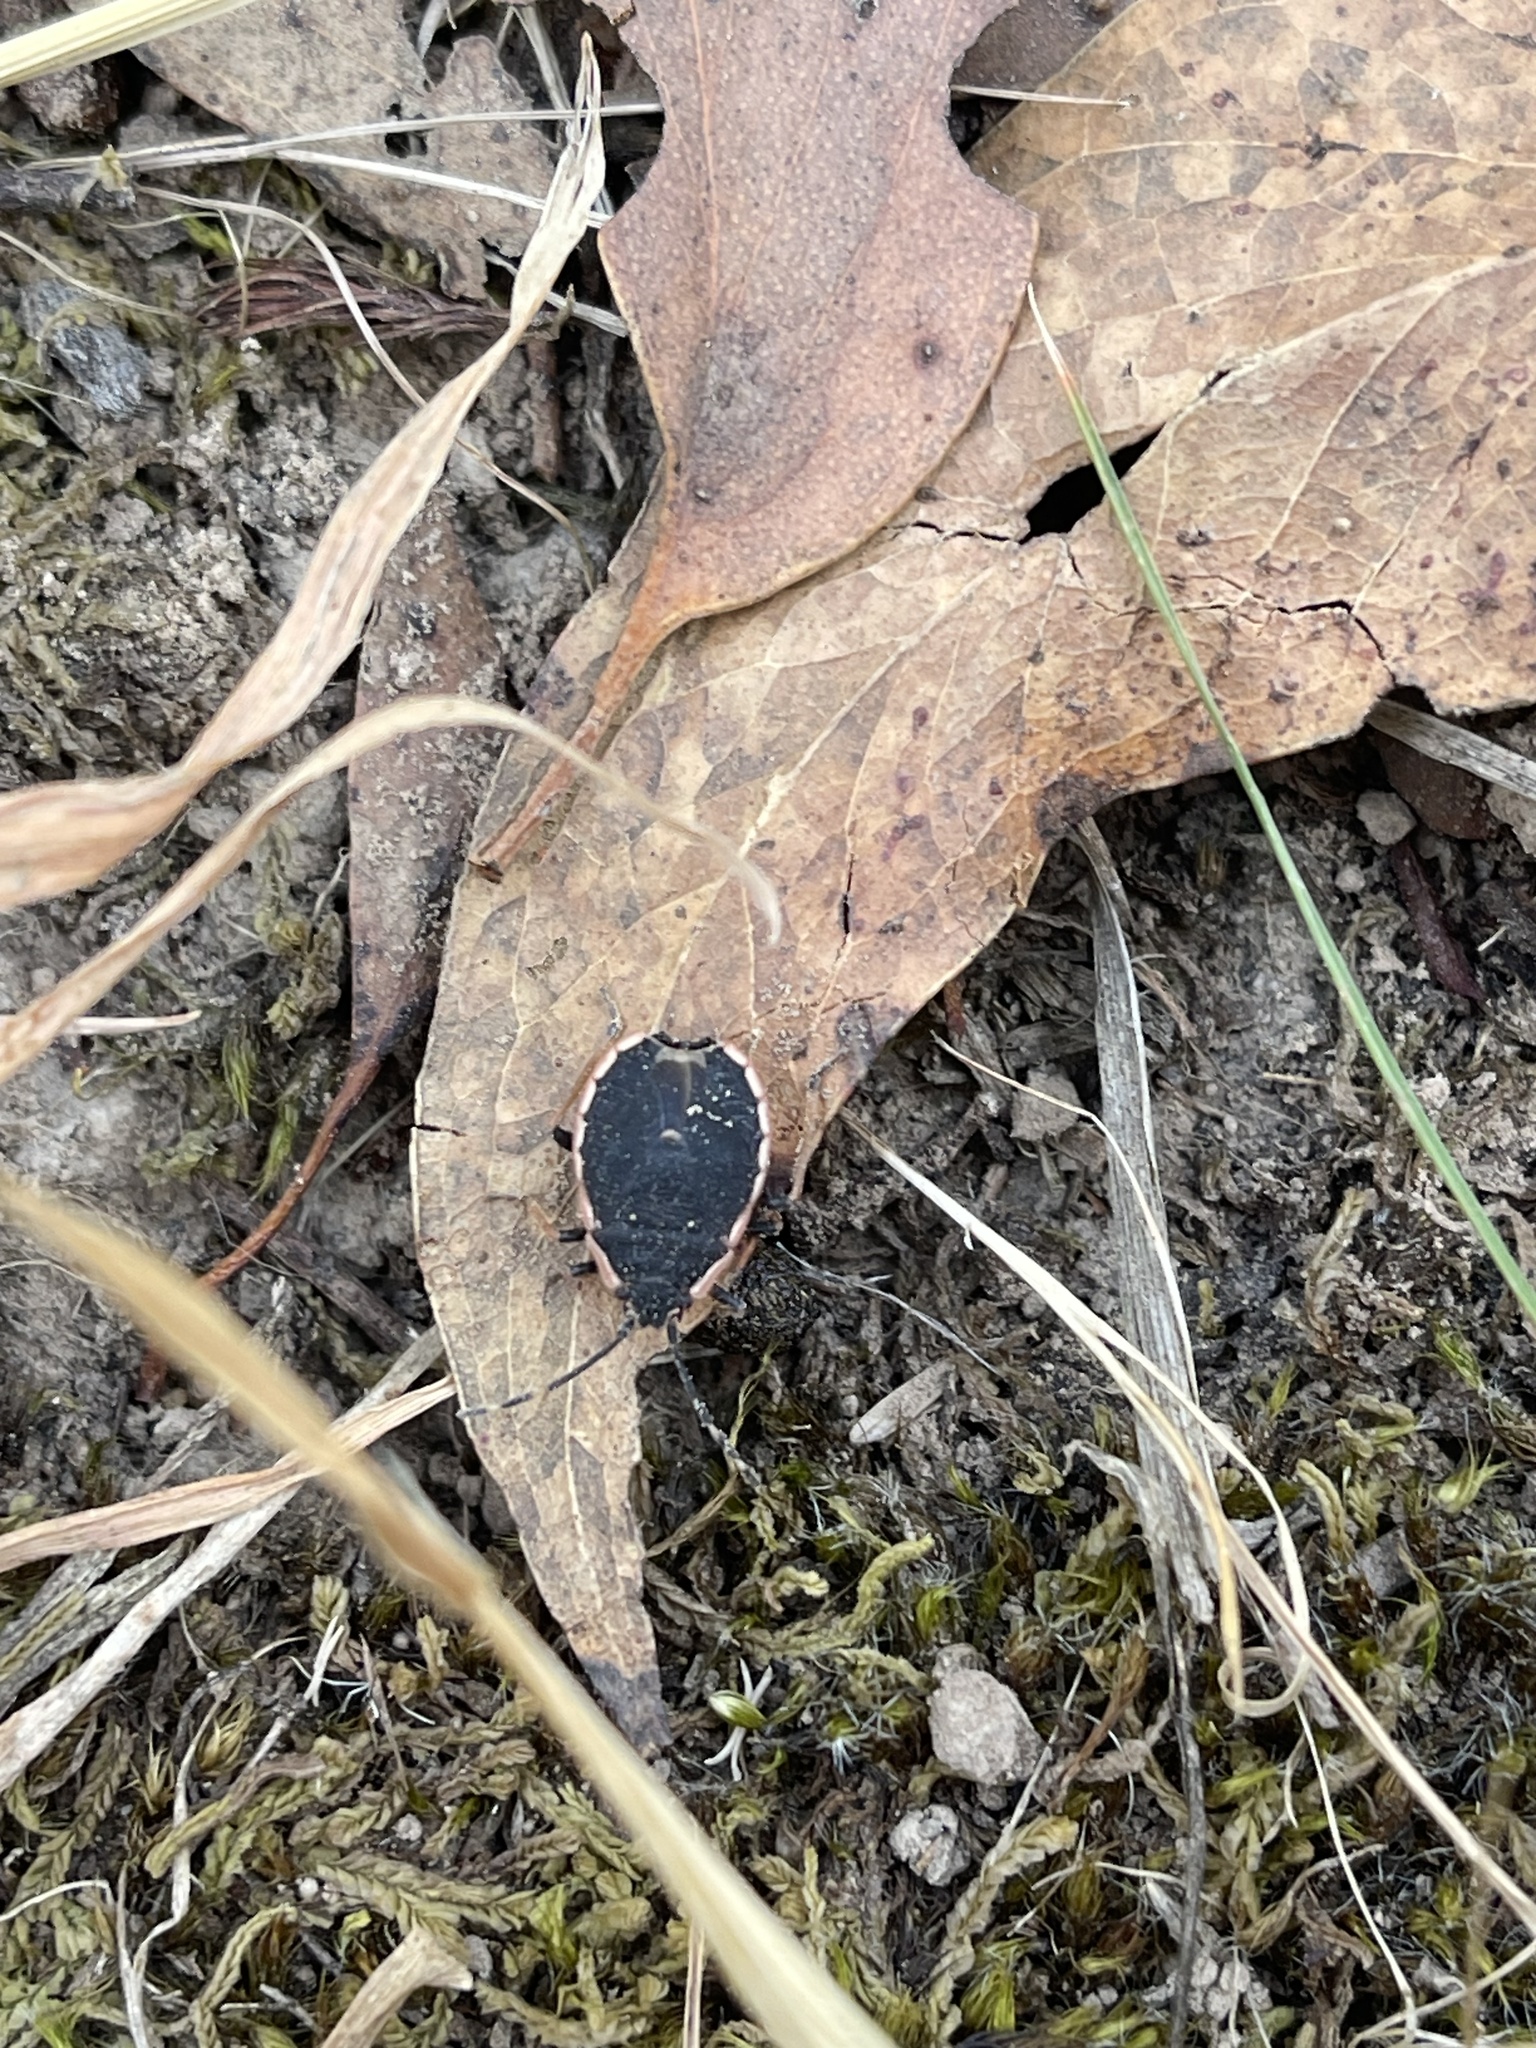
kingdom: Animalia
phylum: Arthropoda
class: Insecta
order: Hemiptera
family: Pentatomidae
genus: Diemenia
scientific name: Diemenia
